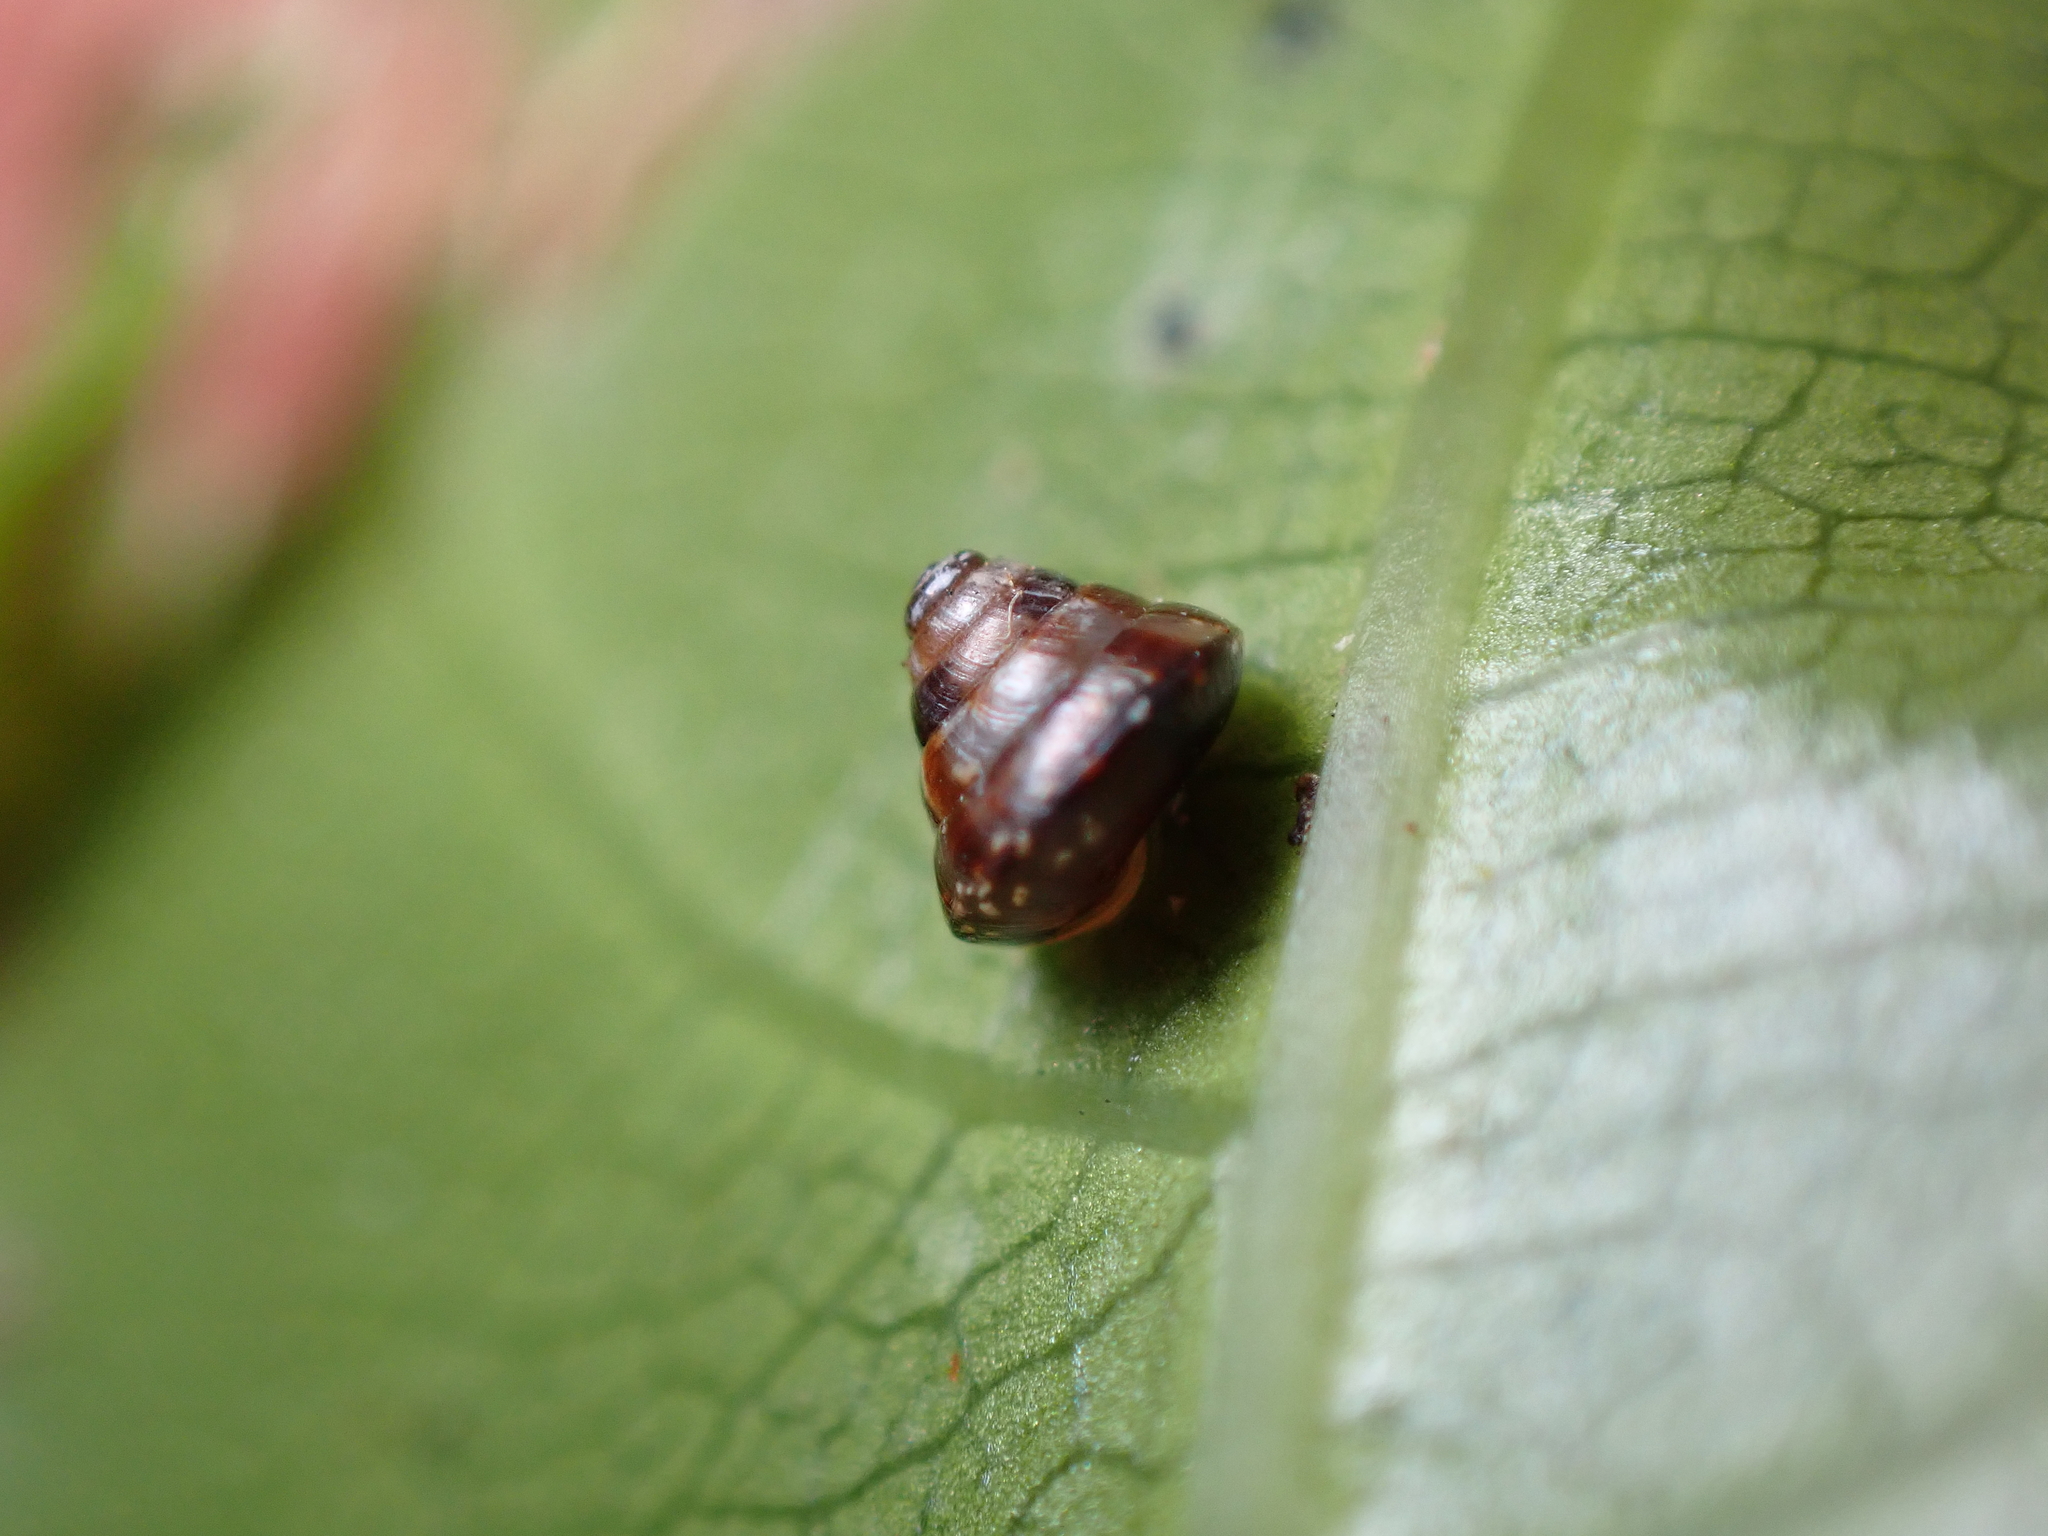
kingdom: Animalia
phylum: Mollusca
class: Gastropoda
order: Stylommatophora
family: Punctidae
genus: Phrixgnathus
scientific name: Phrixgnathus erigone
